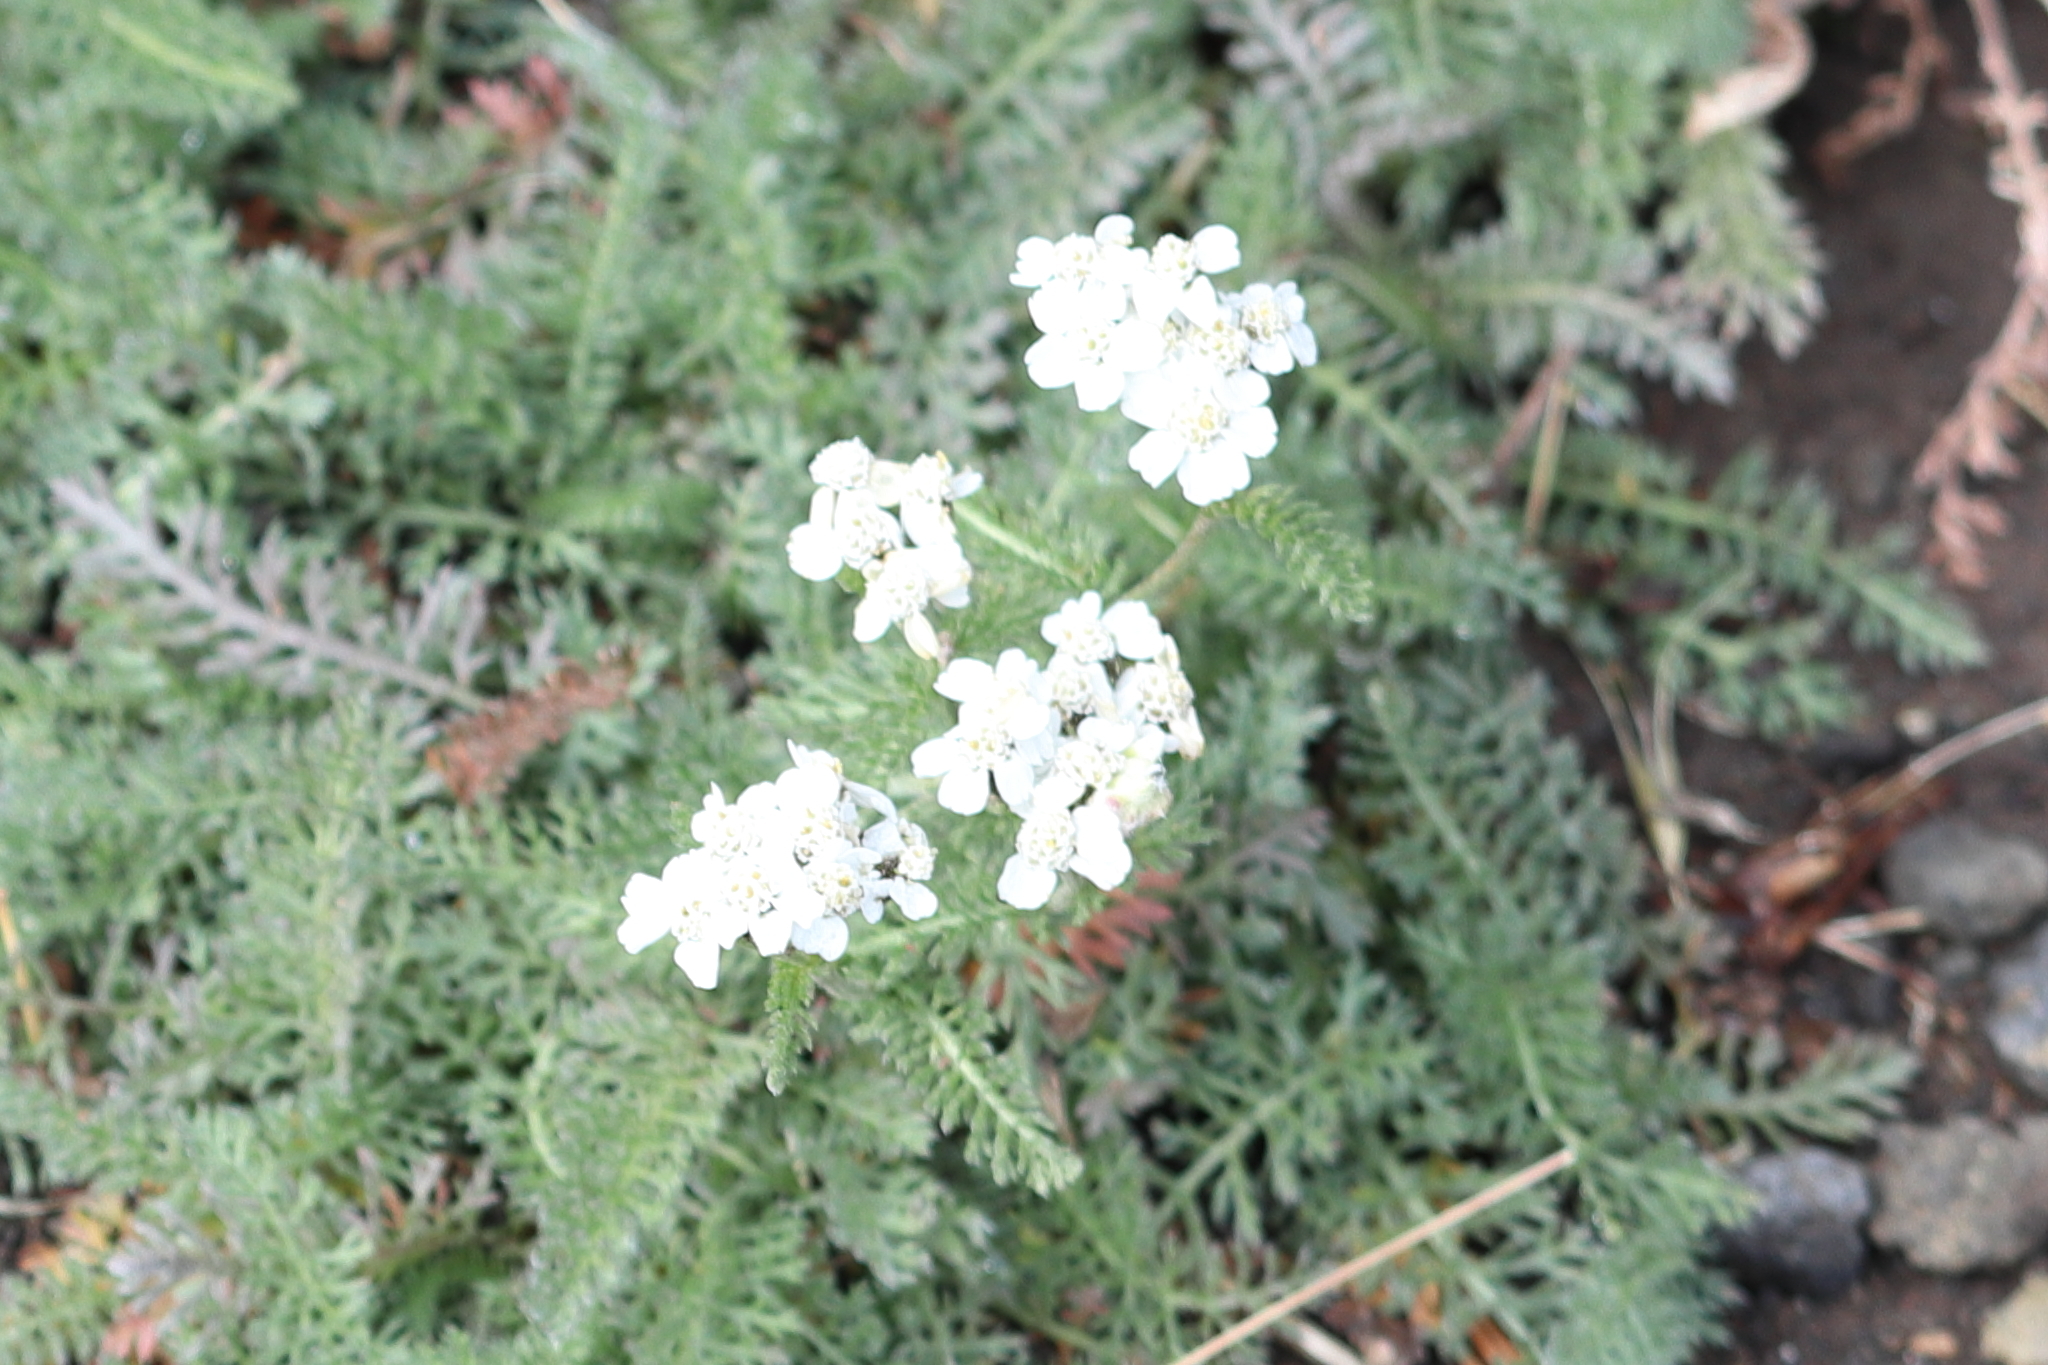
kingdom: Plantae
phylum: Tracheophyta
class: Magnoliopsida
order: Asterales
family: Asteraceae
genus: Achillea
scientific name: Achillea millefolium
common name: Yarrow
